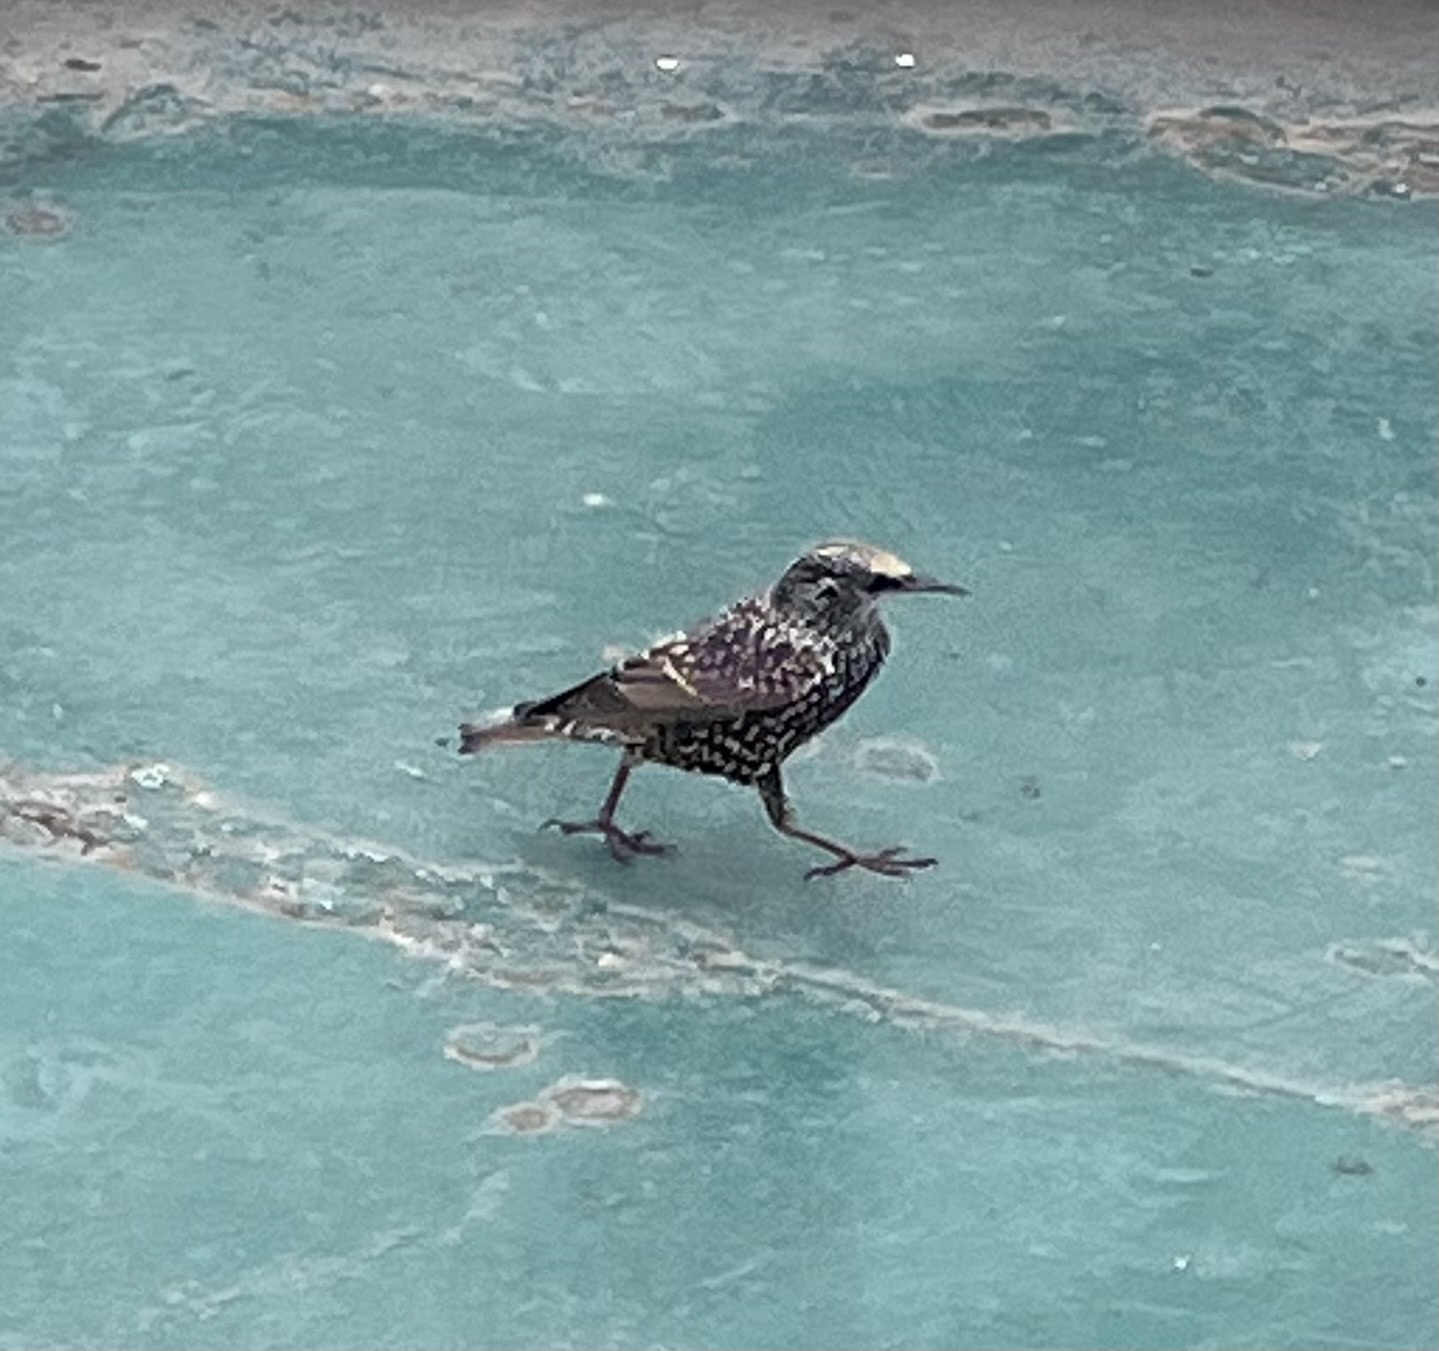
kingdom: Animalia
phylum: Chordata
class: Aves
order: Passeriformes
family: Sturnidae
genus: Sturnus
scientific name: Sturnus vulgaris
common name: Common starling
